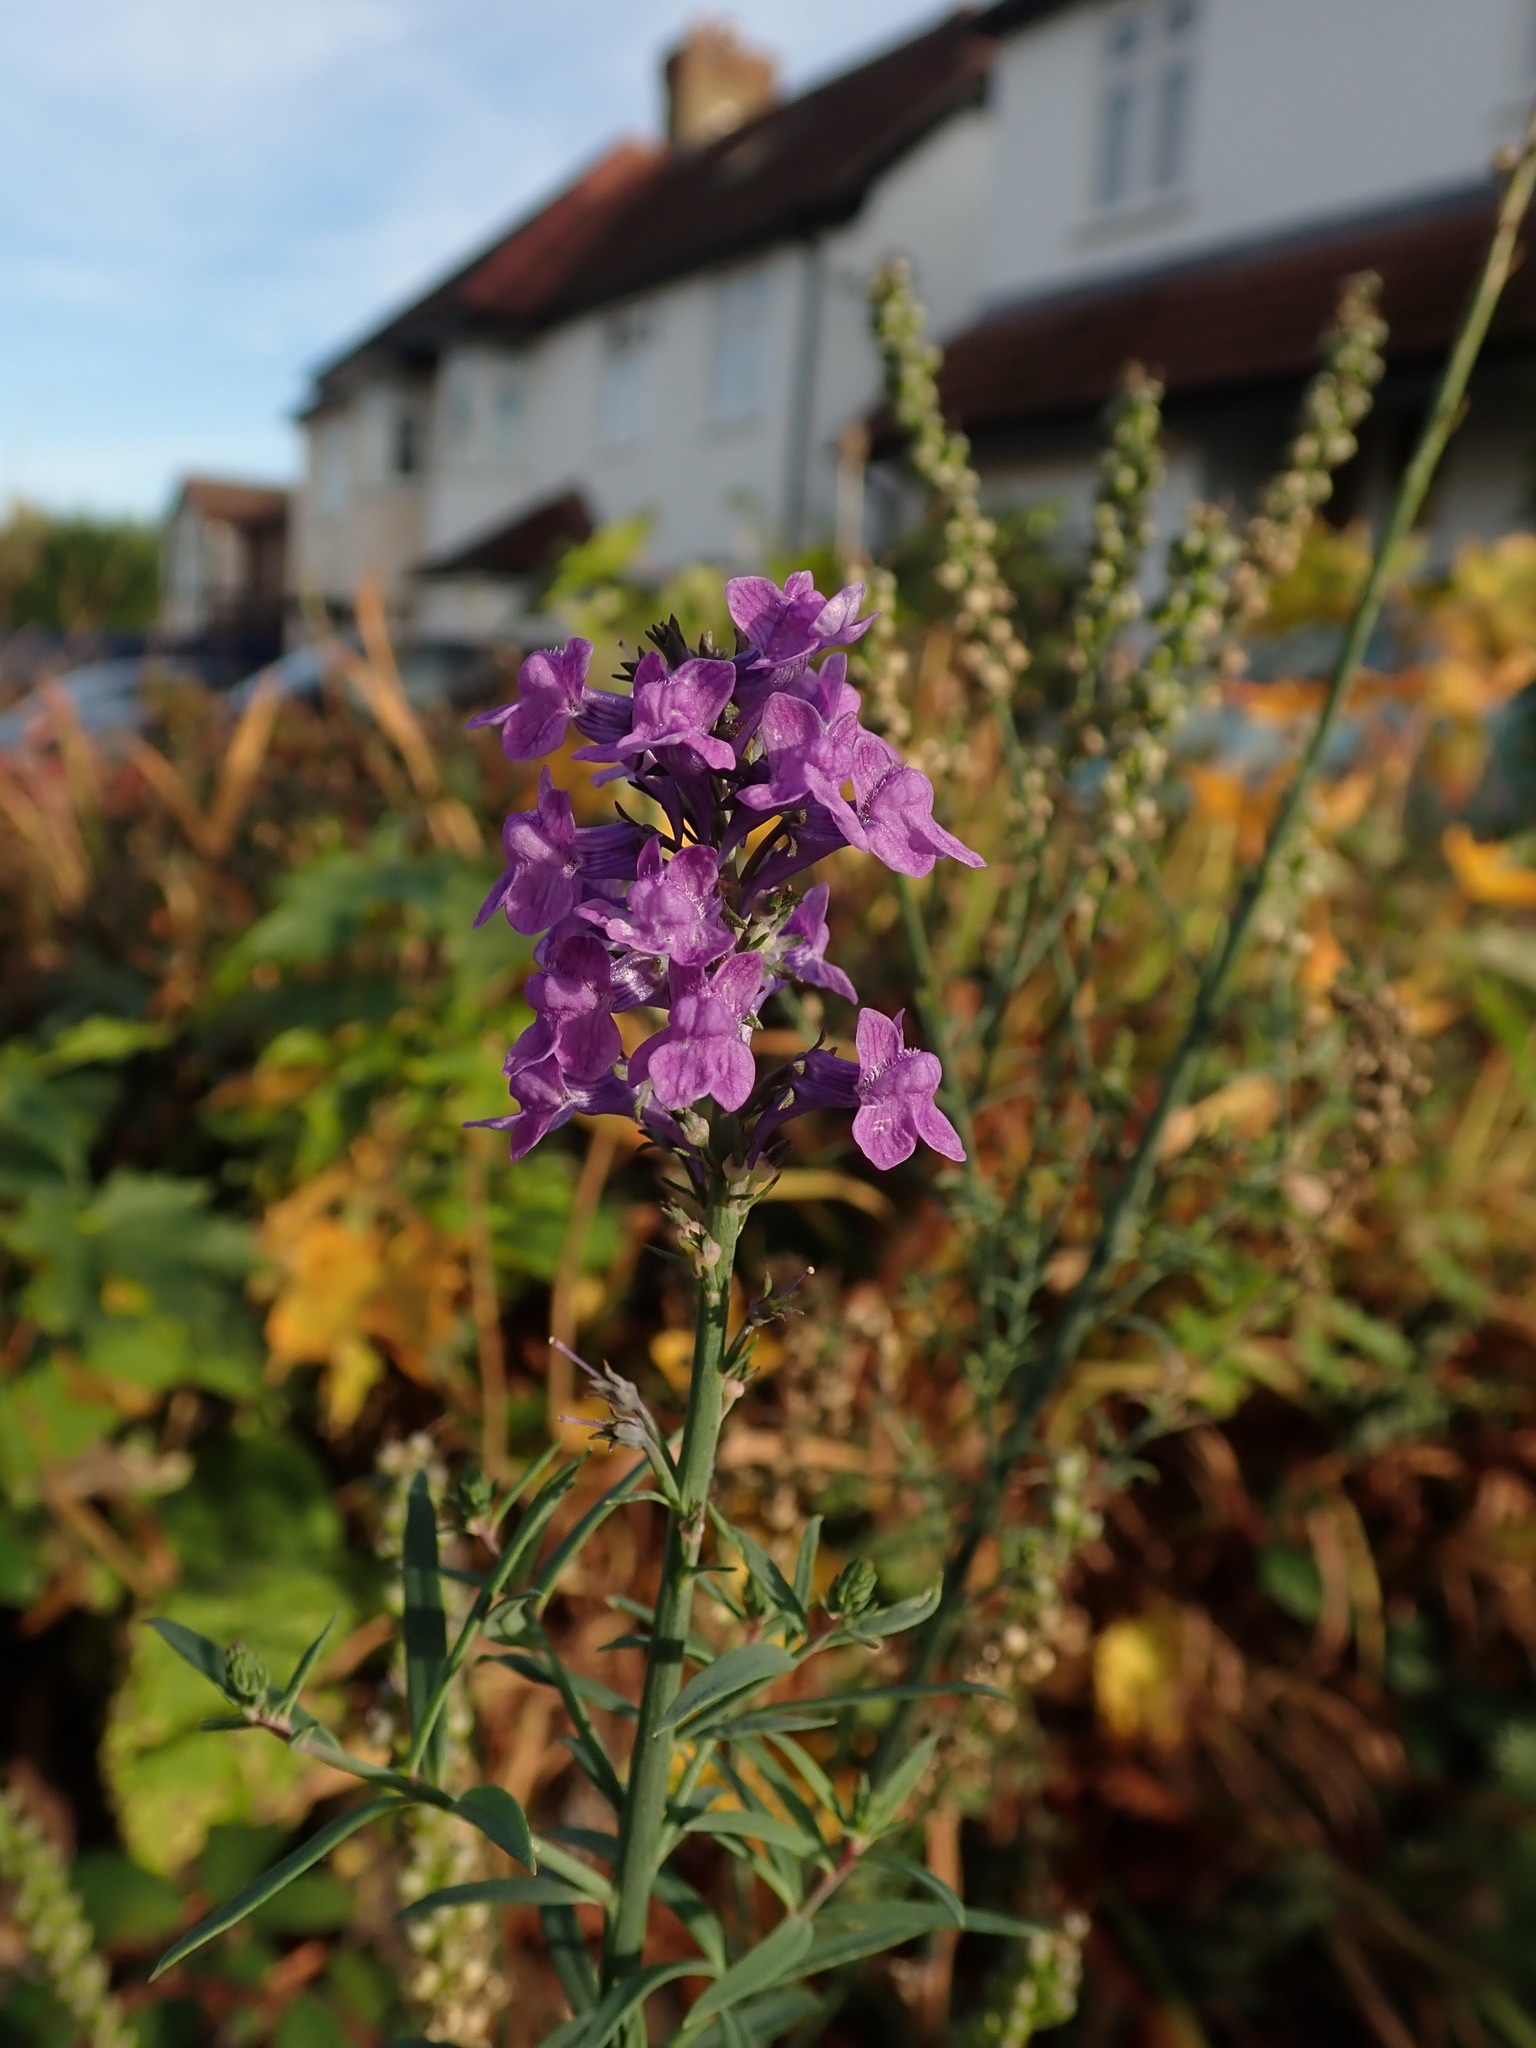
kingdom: Plantae
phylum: Tracheophyta
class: Magnoliopsida
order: Lamiales
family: Plantaginaceae
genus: Linaria
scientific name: Linaria purpurea
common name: Purple toadflax
